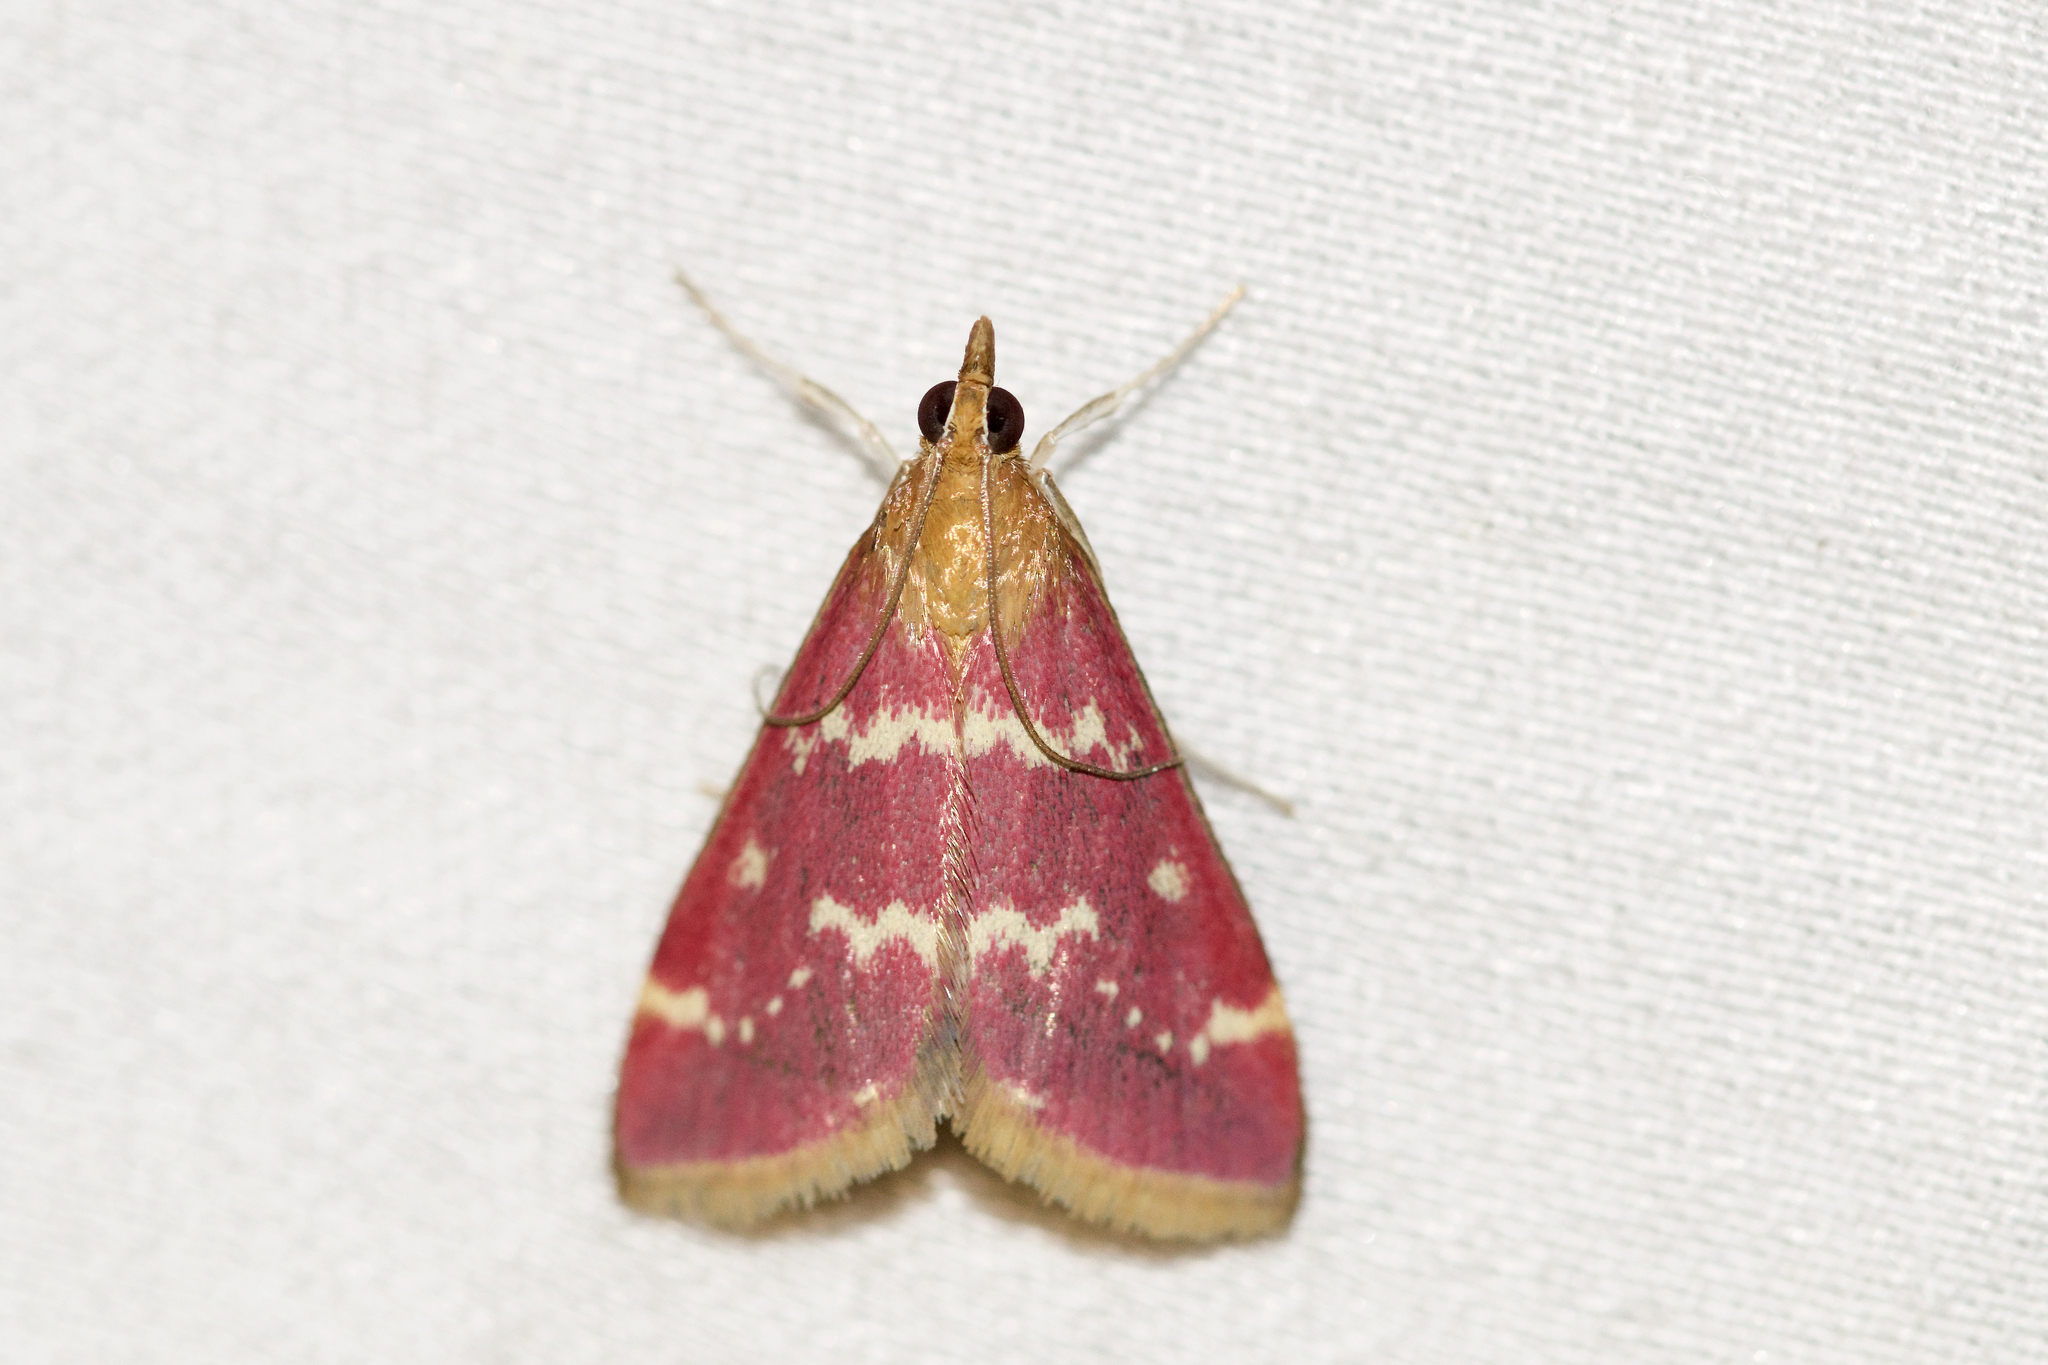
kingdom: Animalia
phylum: Arthropoda
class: Insecta
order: Lepidoptera
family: Crambidae
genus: Pyrausta
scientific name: Pyrausta signatalis
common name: Raspberry pyrausta moth
